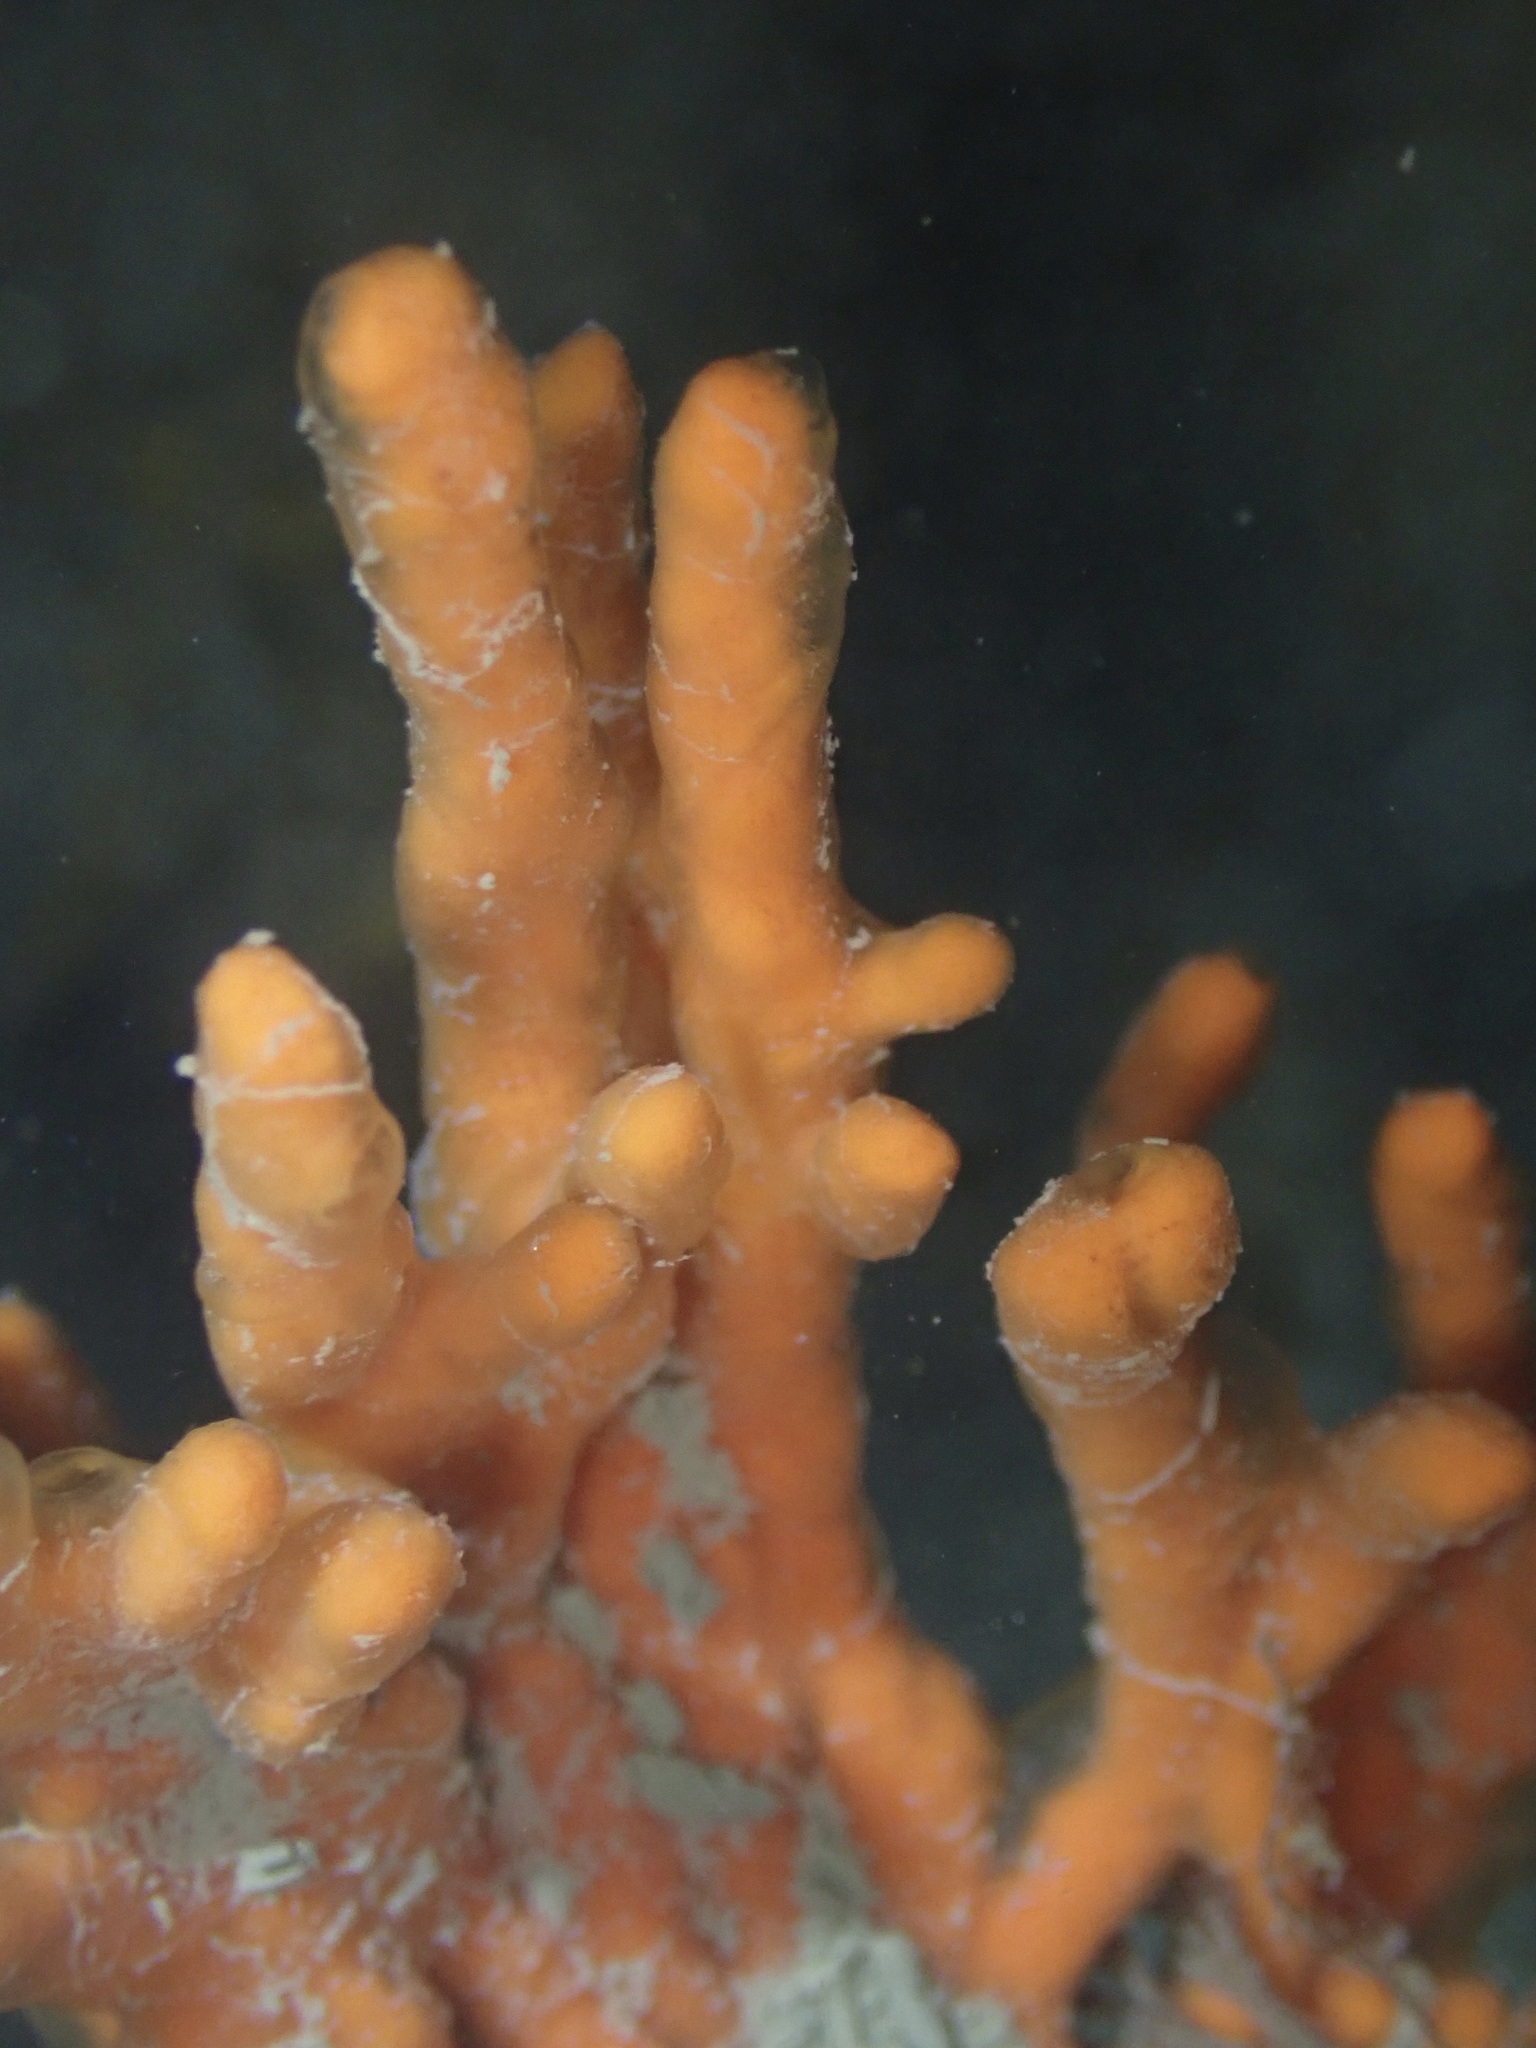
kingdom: Animalia
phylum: Porifera
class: Demospongiae
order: Poecilosclerida
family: Microcionidae
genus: Clathria
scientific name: Clathria prolifera
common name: Red beard sponge
